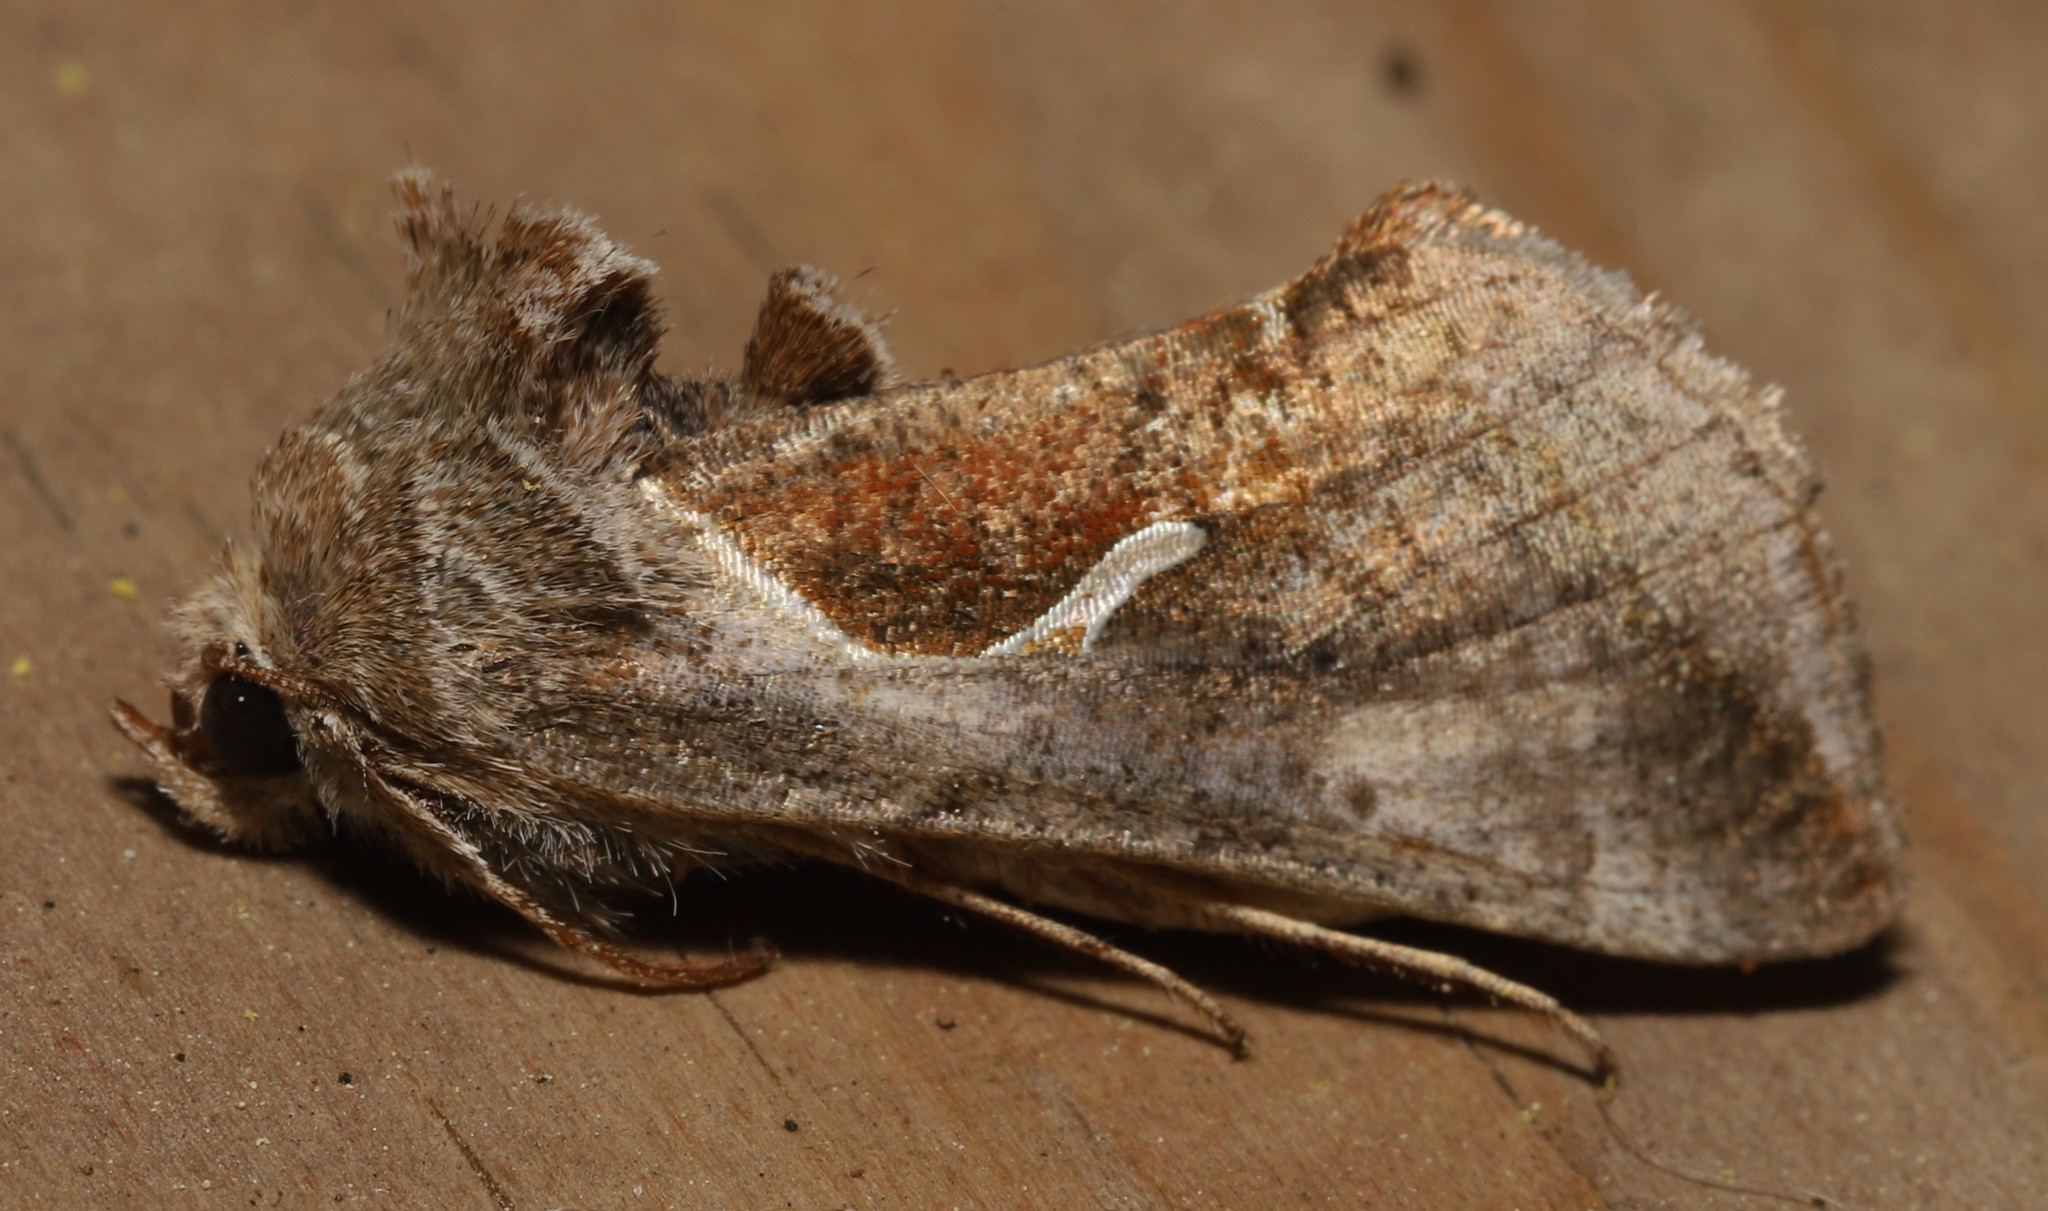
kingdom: Animalia
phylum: Arthropoda
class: Insecta
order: Lepidoptera
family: Noctuidae
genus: Anagrapha
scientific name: Anagrapha falcifera
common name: Celery looper
